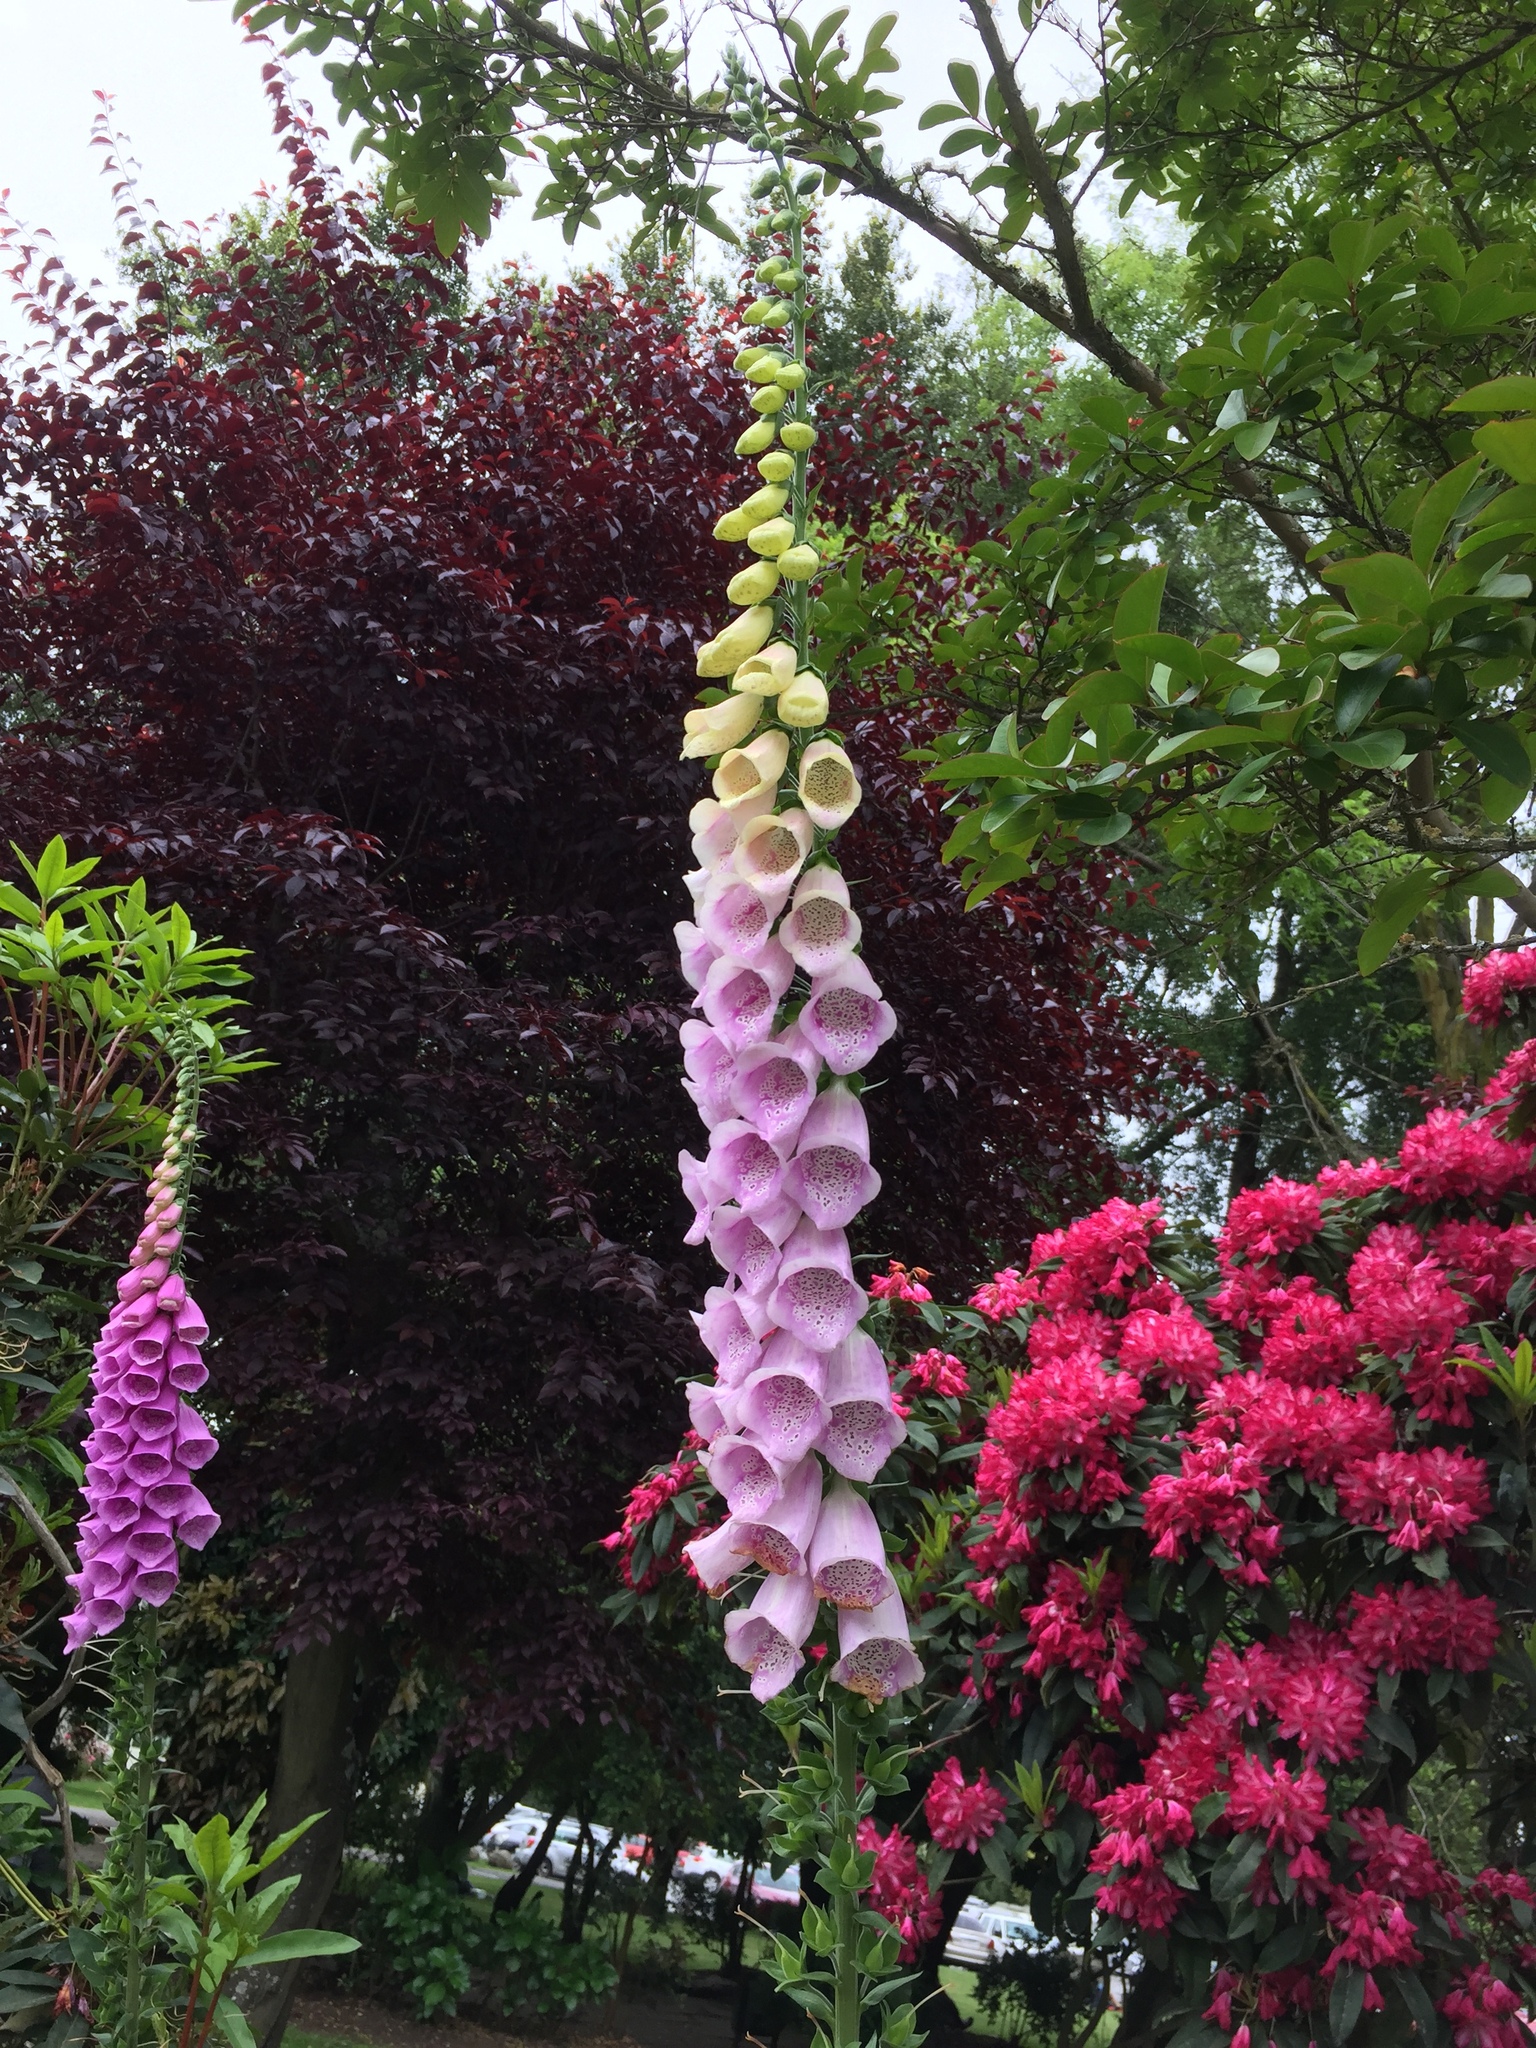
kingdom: Plantae
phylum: Tracheophyta
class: Magnoliopsida
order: Lamiales
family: Plantaginaceae
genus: Digitalis
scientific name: Digitalis purpurea
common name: Foxglove
